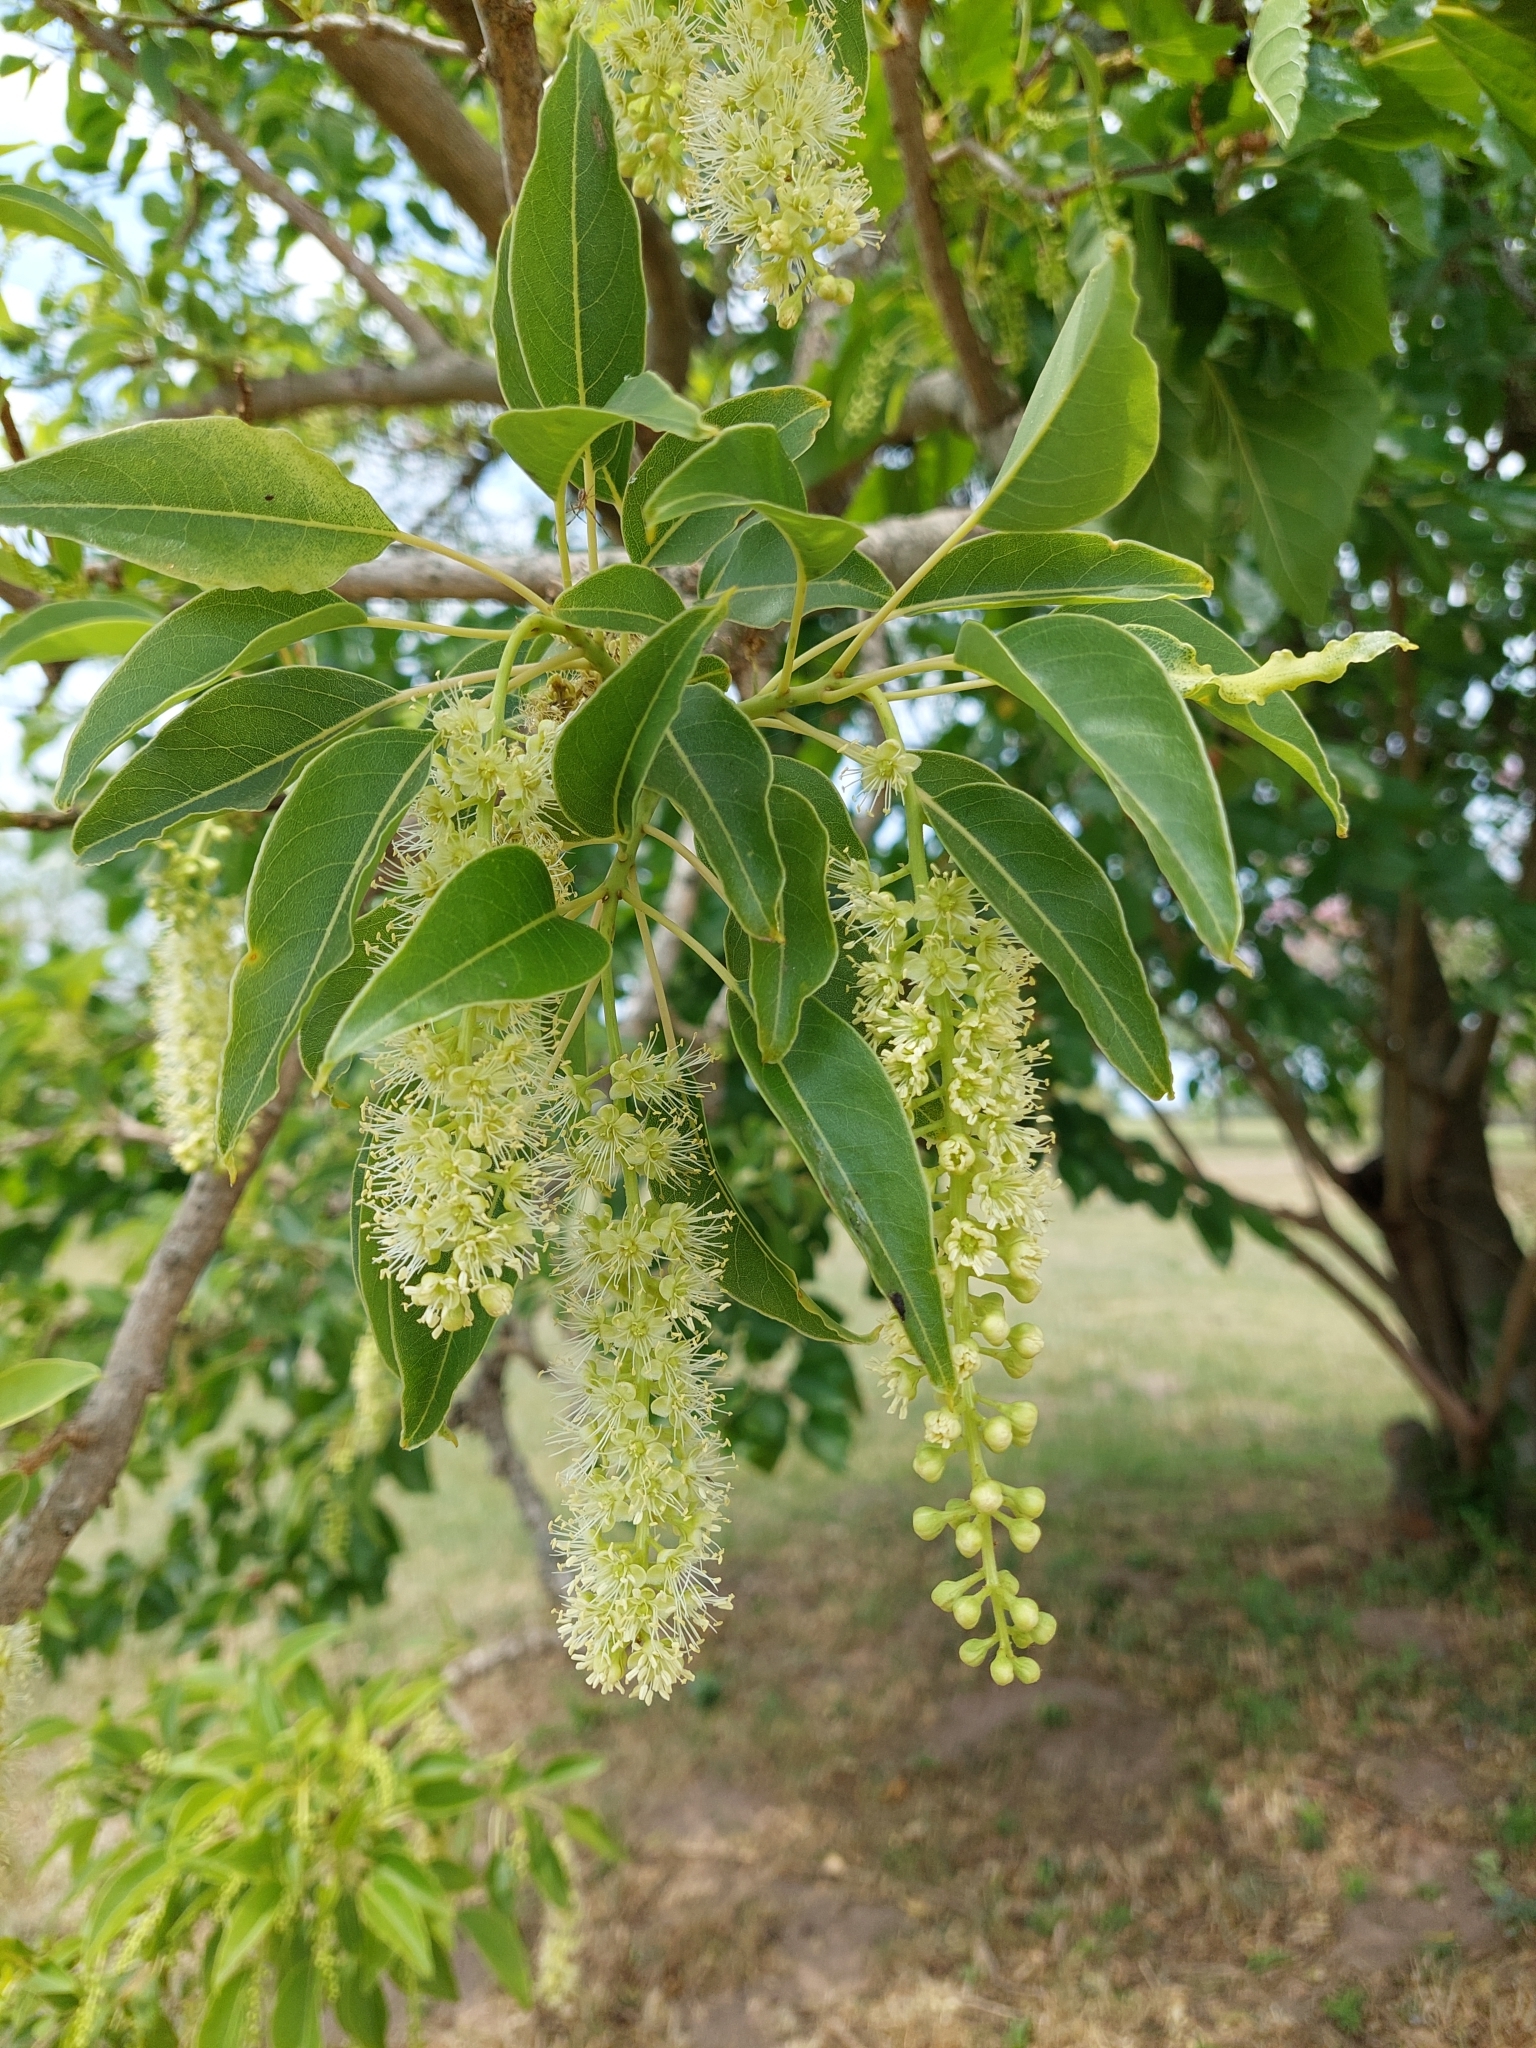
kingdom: Plantae
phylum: Tracheophyta
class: Magnoliopsida
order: Caryophyllales
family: Phytolaccaceae
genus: Phytolacca
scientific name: Phytolacca dioica
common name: Pokeweed
